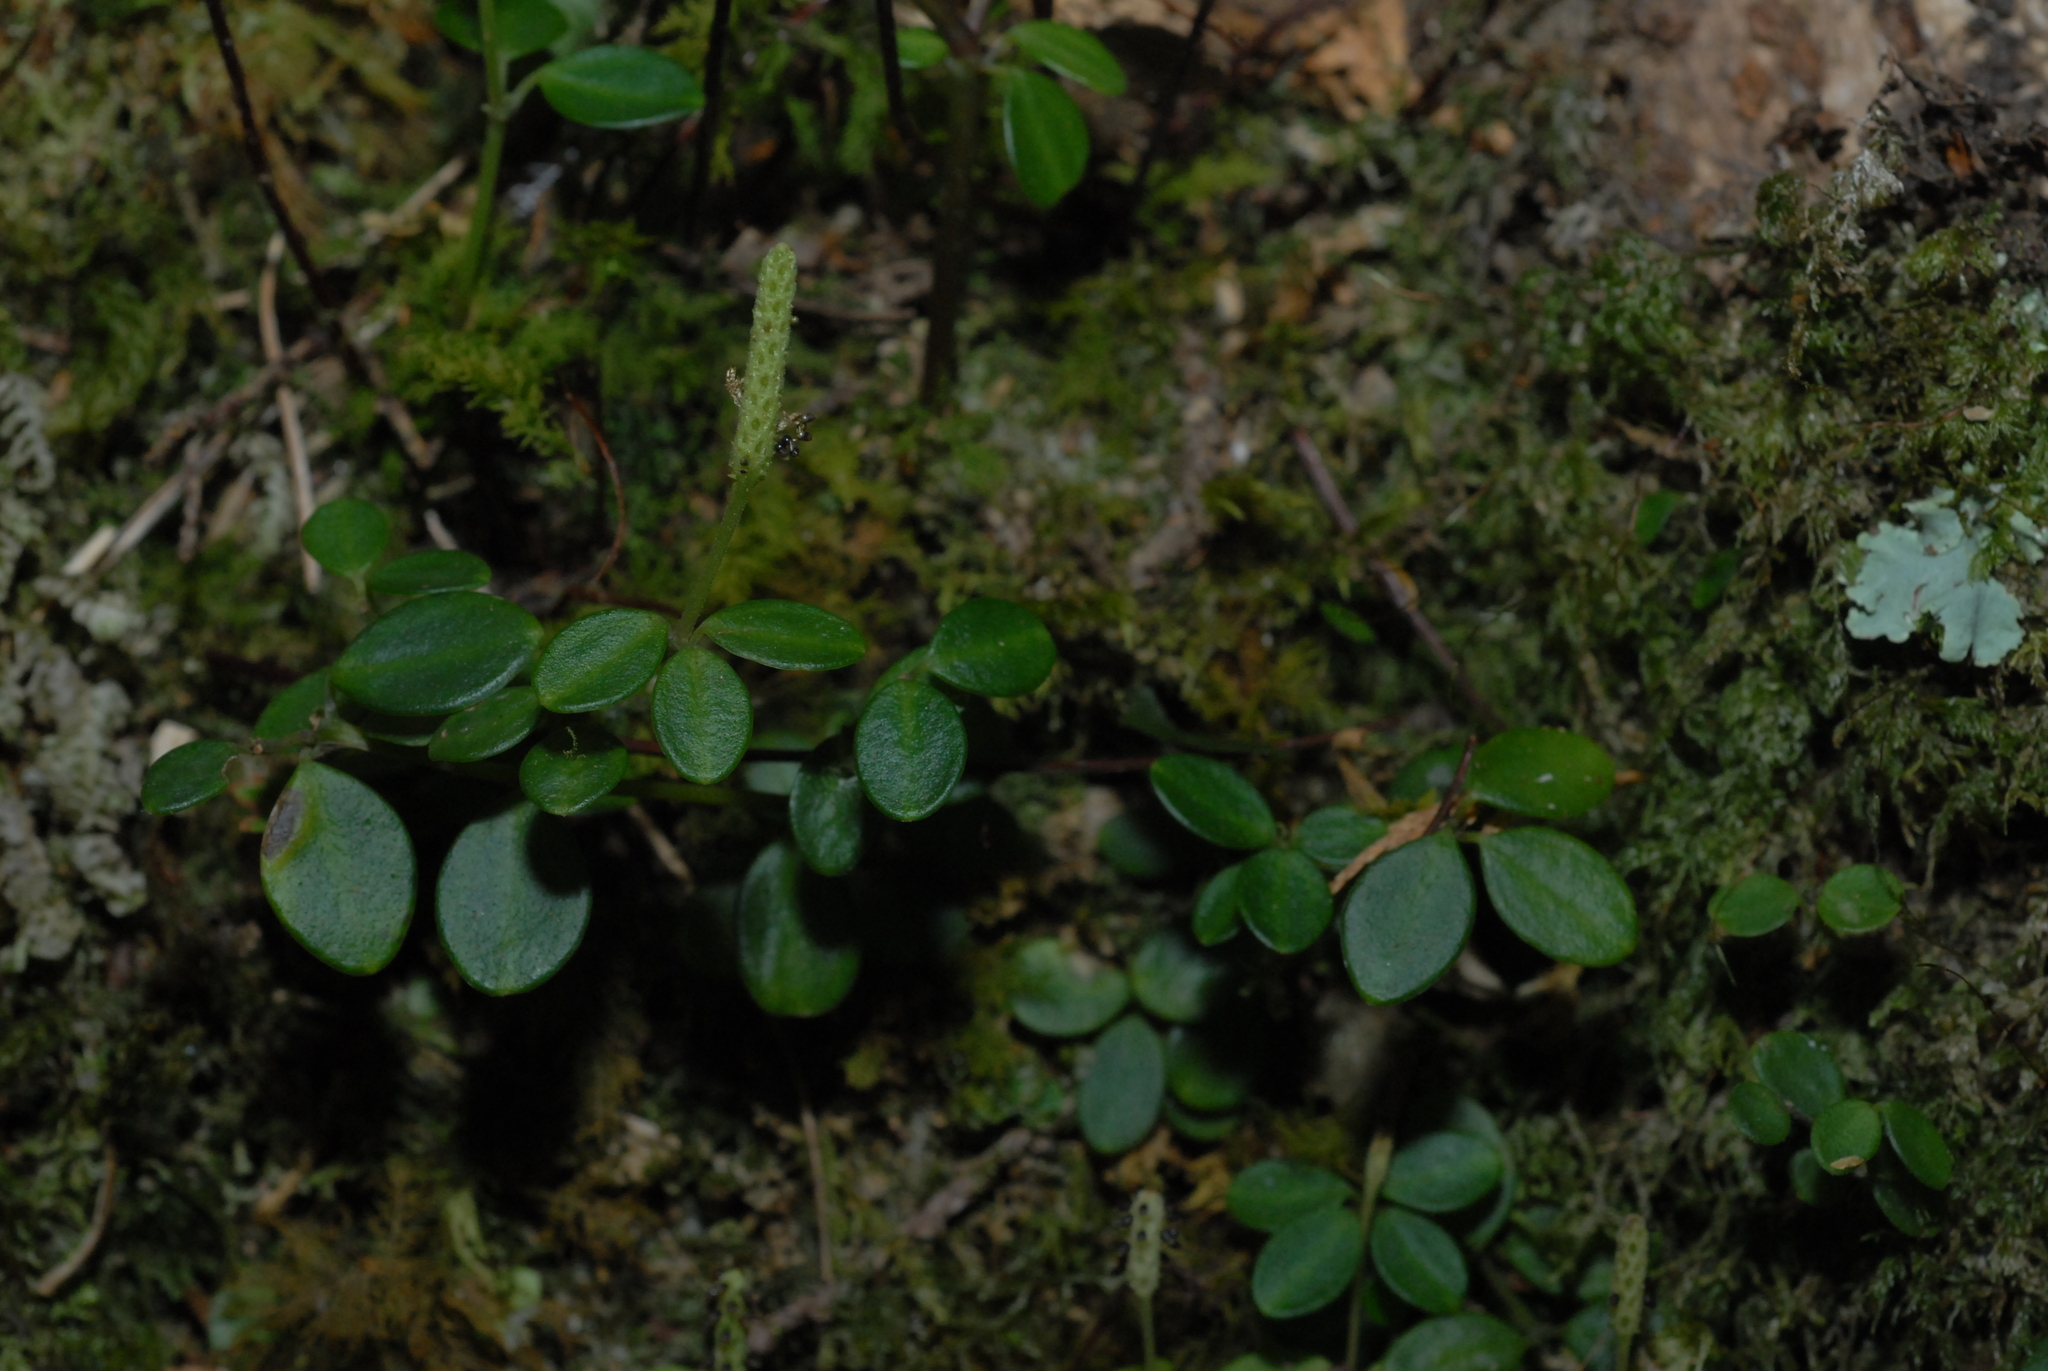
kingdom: Plantae
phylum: Tracheophyta
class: Magnoliopsida
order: Piperales
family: Piperaceae
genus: Peperomia
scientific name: Peperomia tetraphylla
